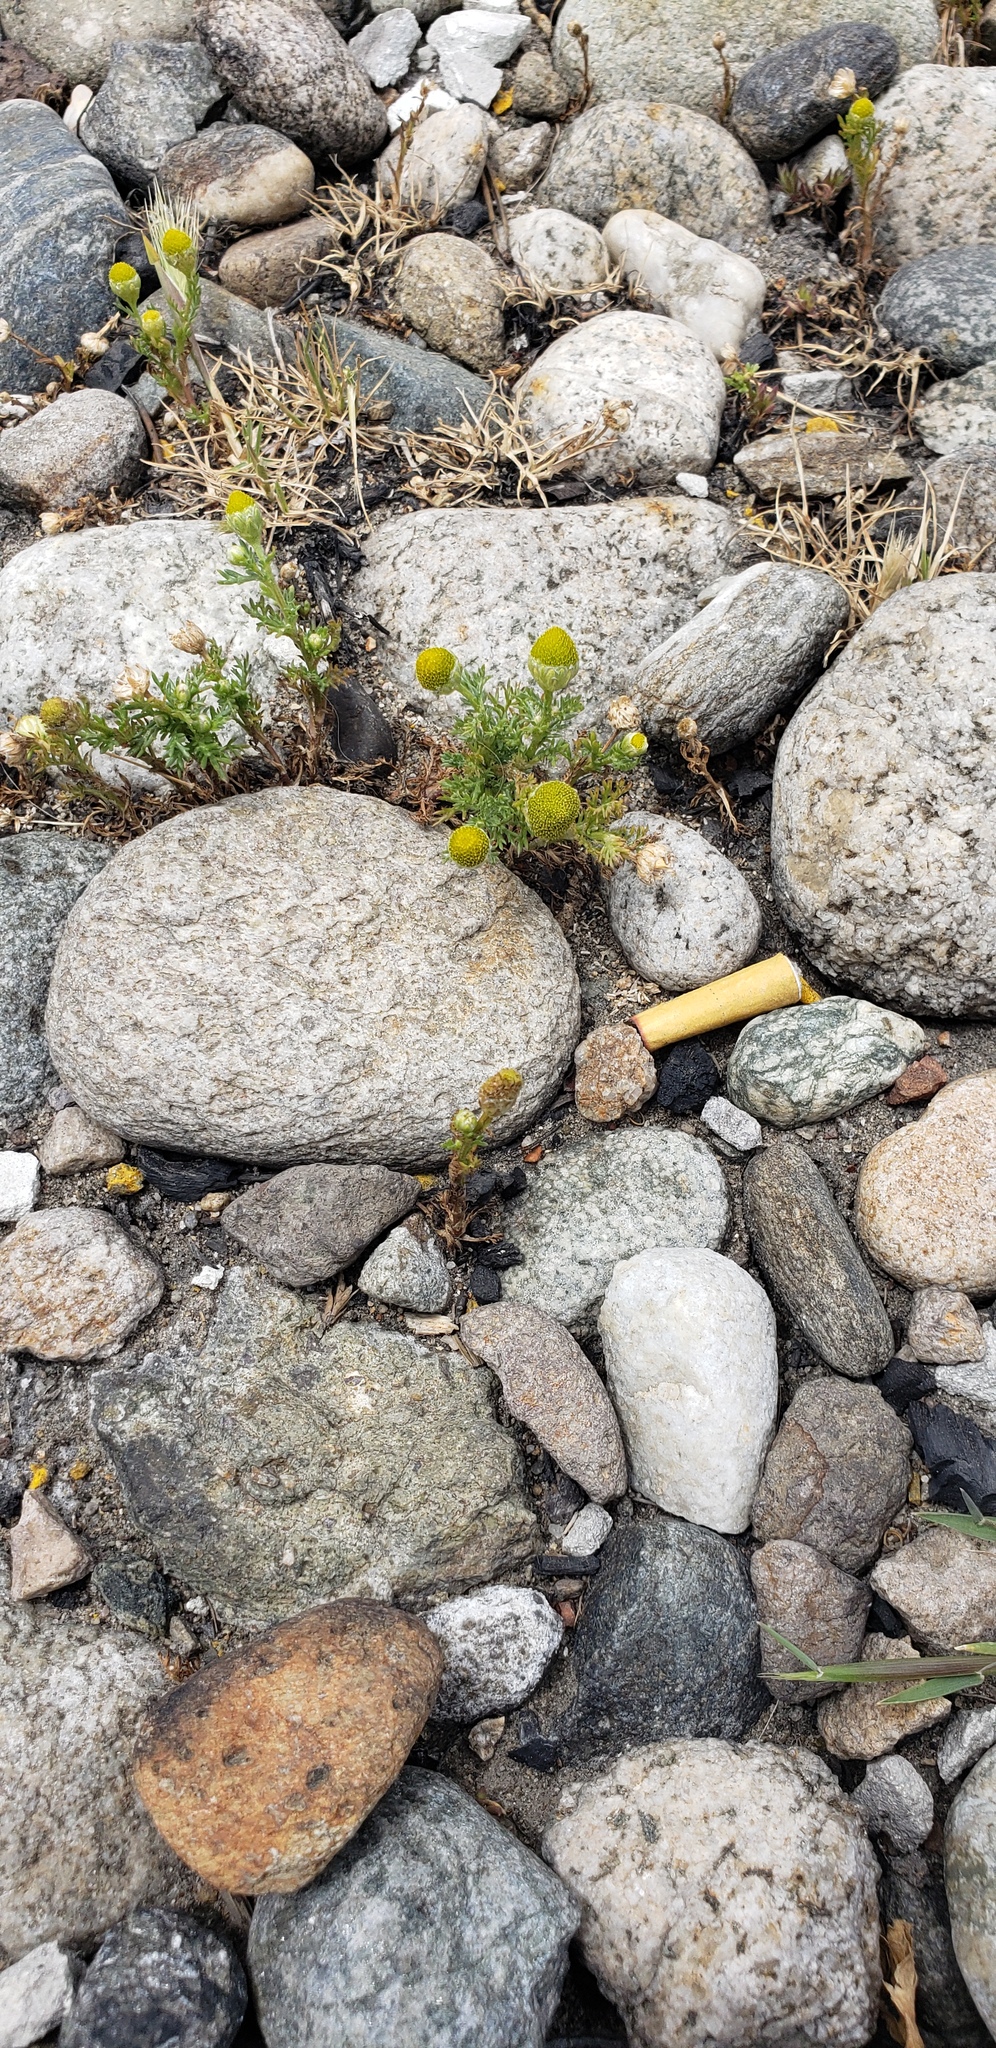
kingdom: Plantae
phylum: Tracheophyta
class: Magnoliopsida
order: Asterales
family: Asteraceae
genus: Matricaria
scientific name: Matricaria discoidea
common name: Disc mayweed
